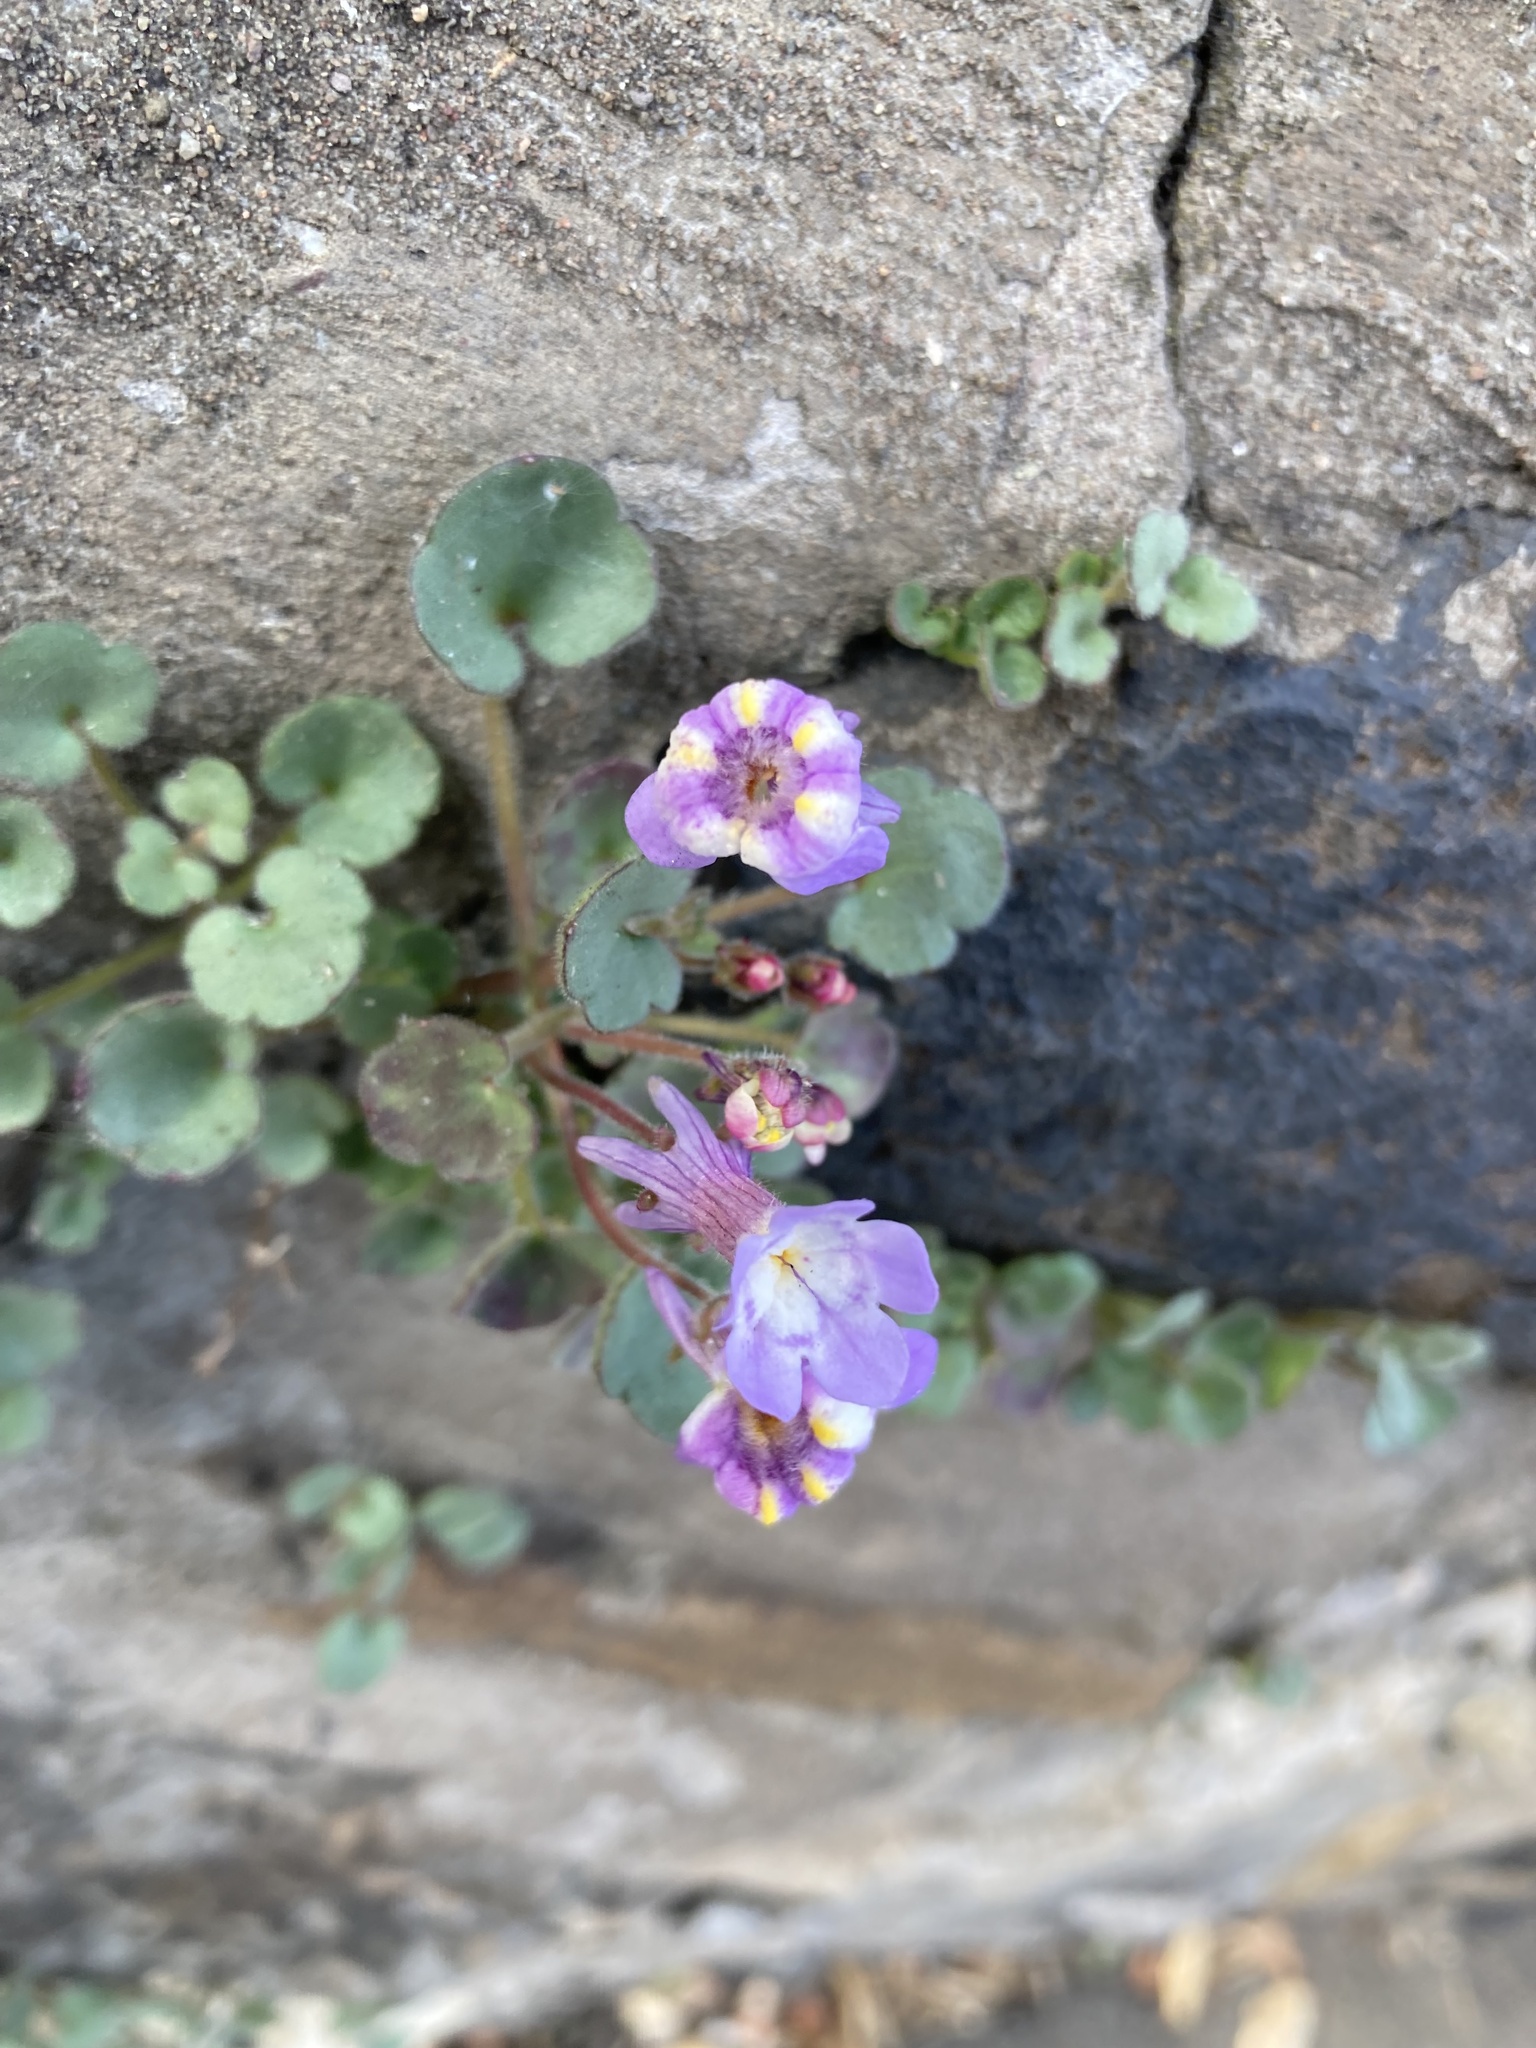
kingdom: Plantae
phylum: Tracheophyta
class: Magnoliopsida
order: Lamiales
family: Plantaginaceae
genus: Cymbalaria
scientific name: Cymbalaria pallida
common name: Italian toadflax
